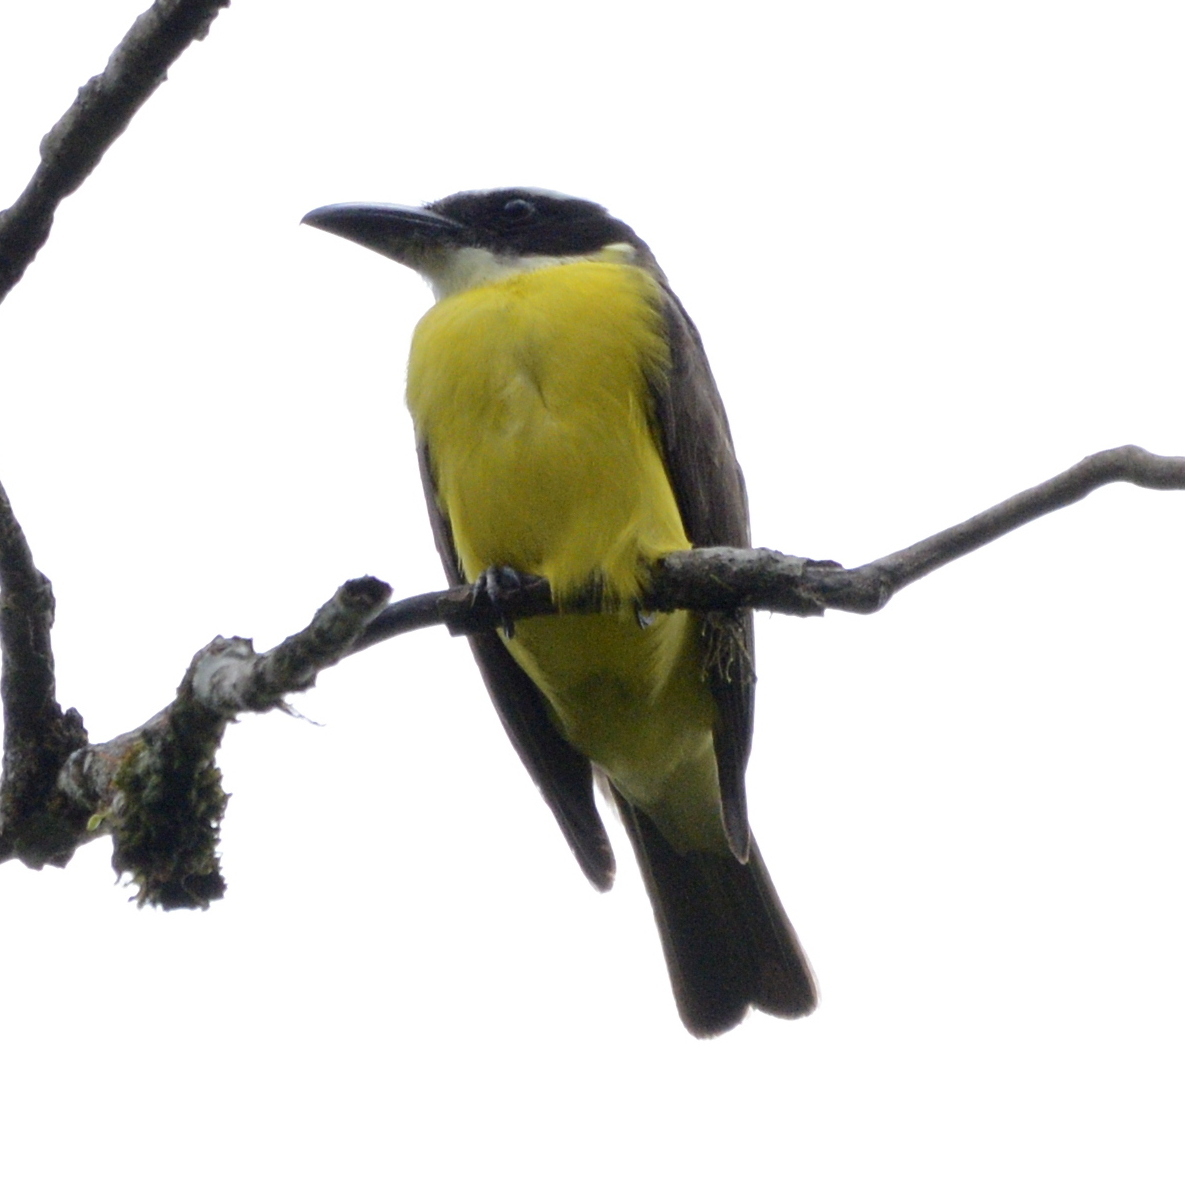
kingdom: Animalia
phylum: Chordata
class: Aves
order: Passeriformes
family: Tyrannidae
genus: Megarynchus
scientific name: Megarynchus pitangua
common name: Boat-billed flycatcher
